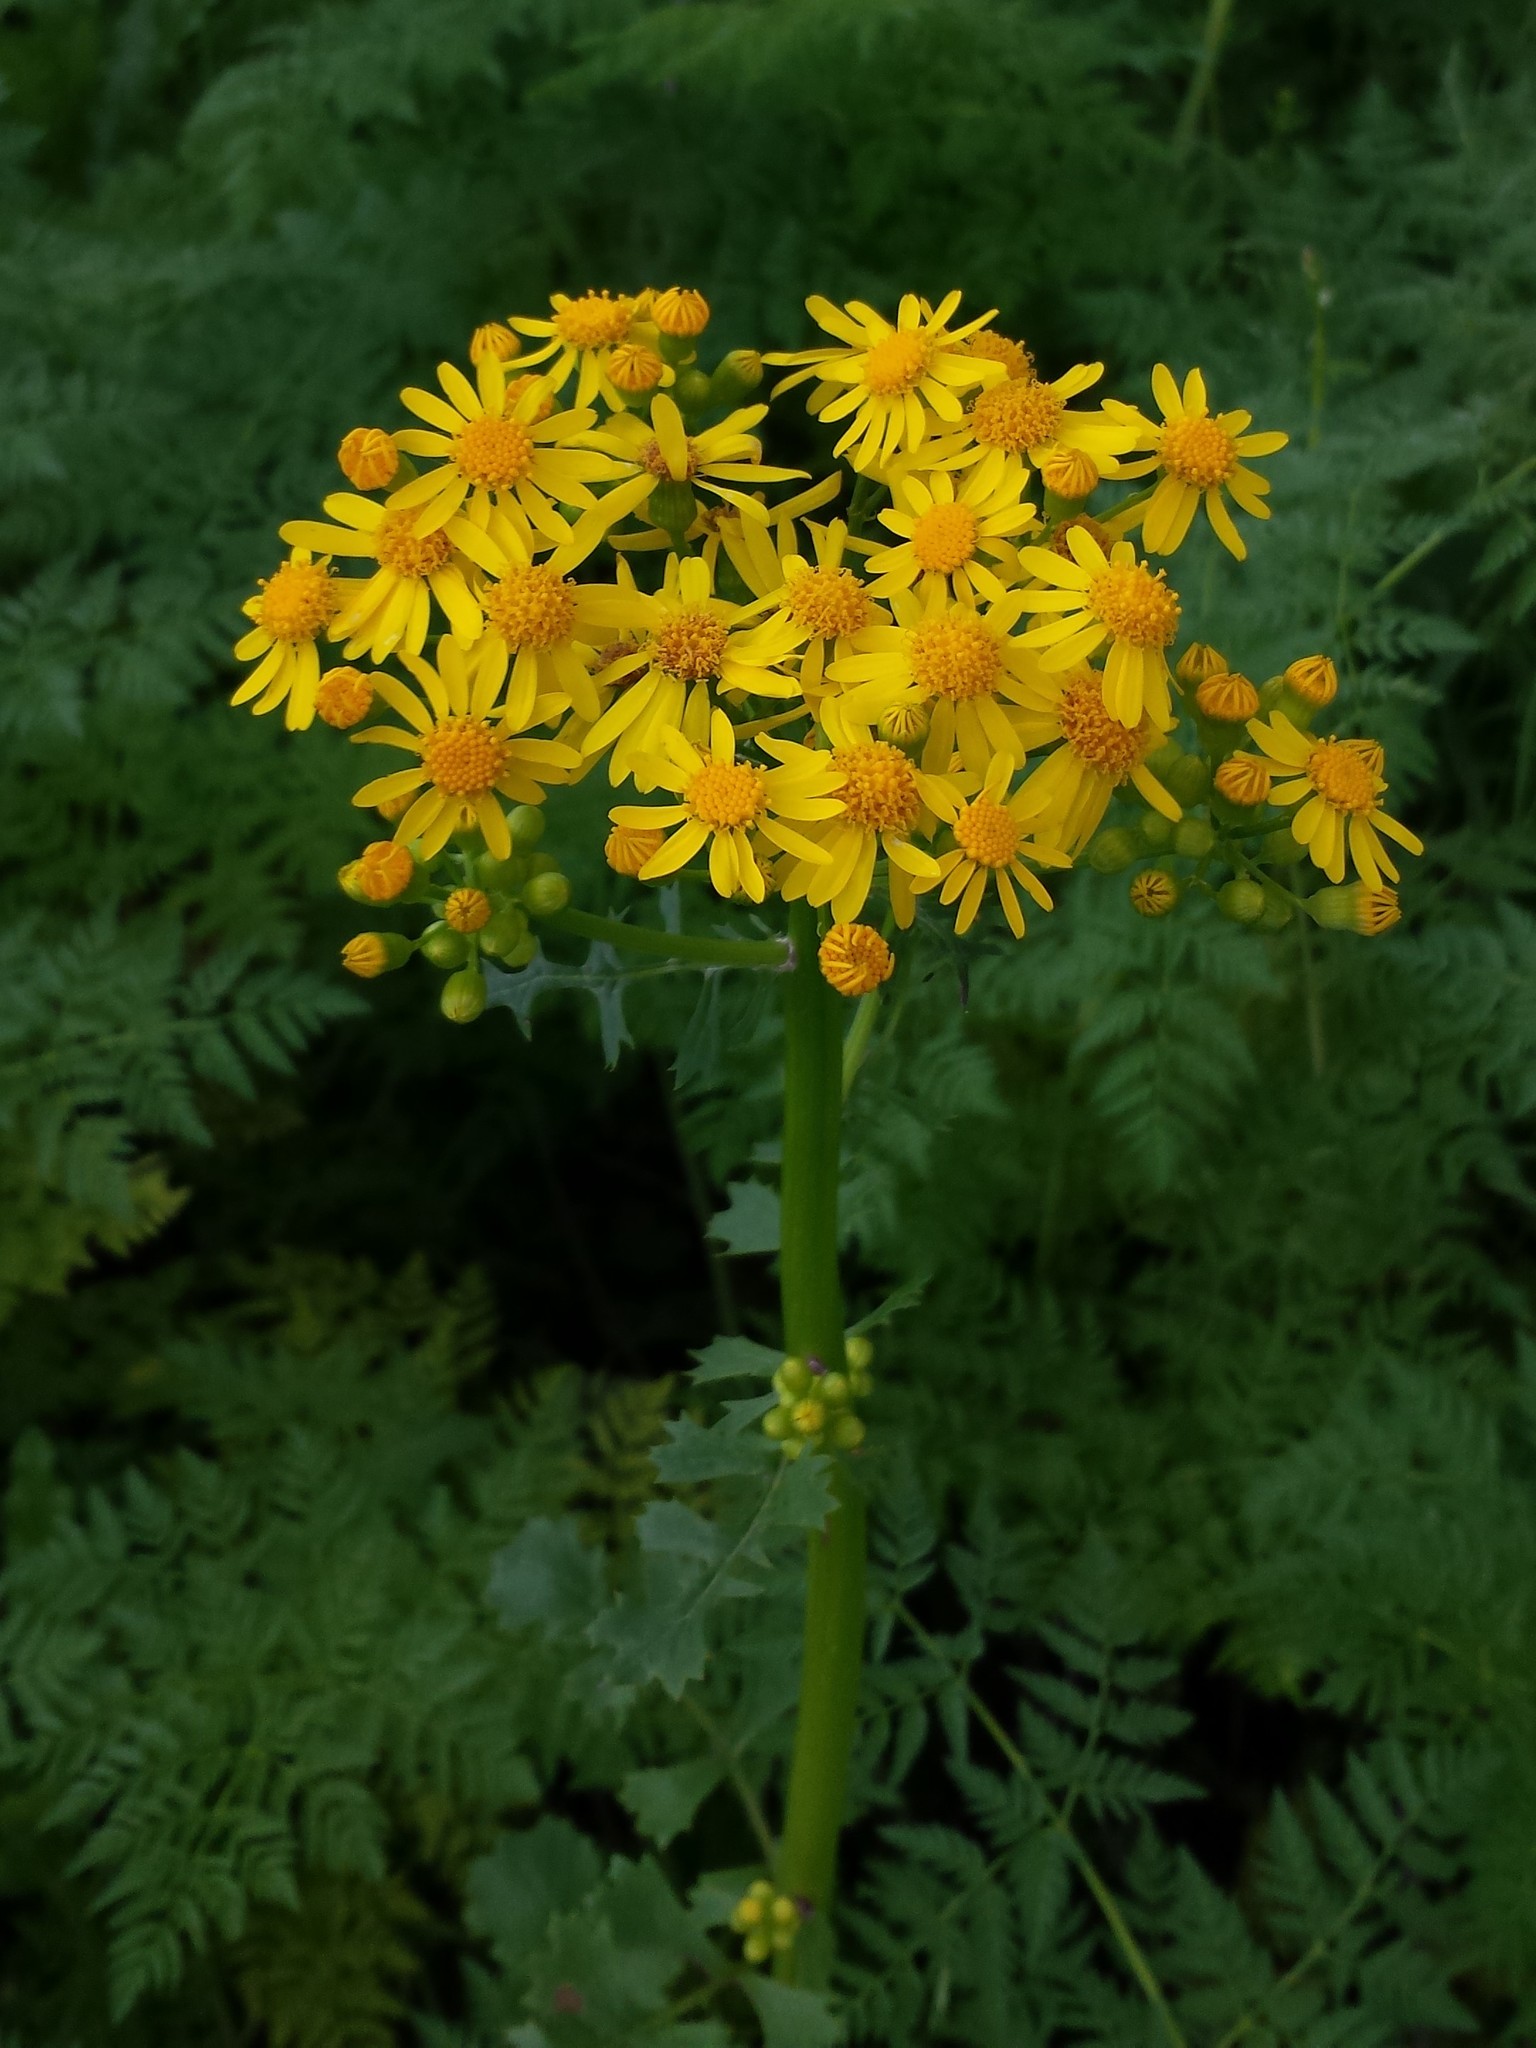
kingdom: Plantae
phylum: Tracheophyta
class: Magnoliopsida
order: Asterales
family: Asteraceae
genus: Packera
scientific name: Packera glabella
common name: Butterweed
